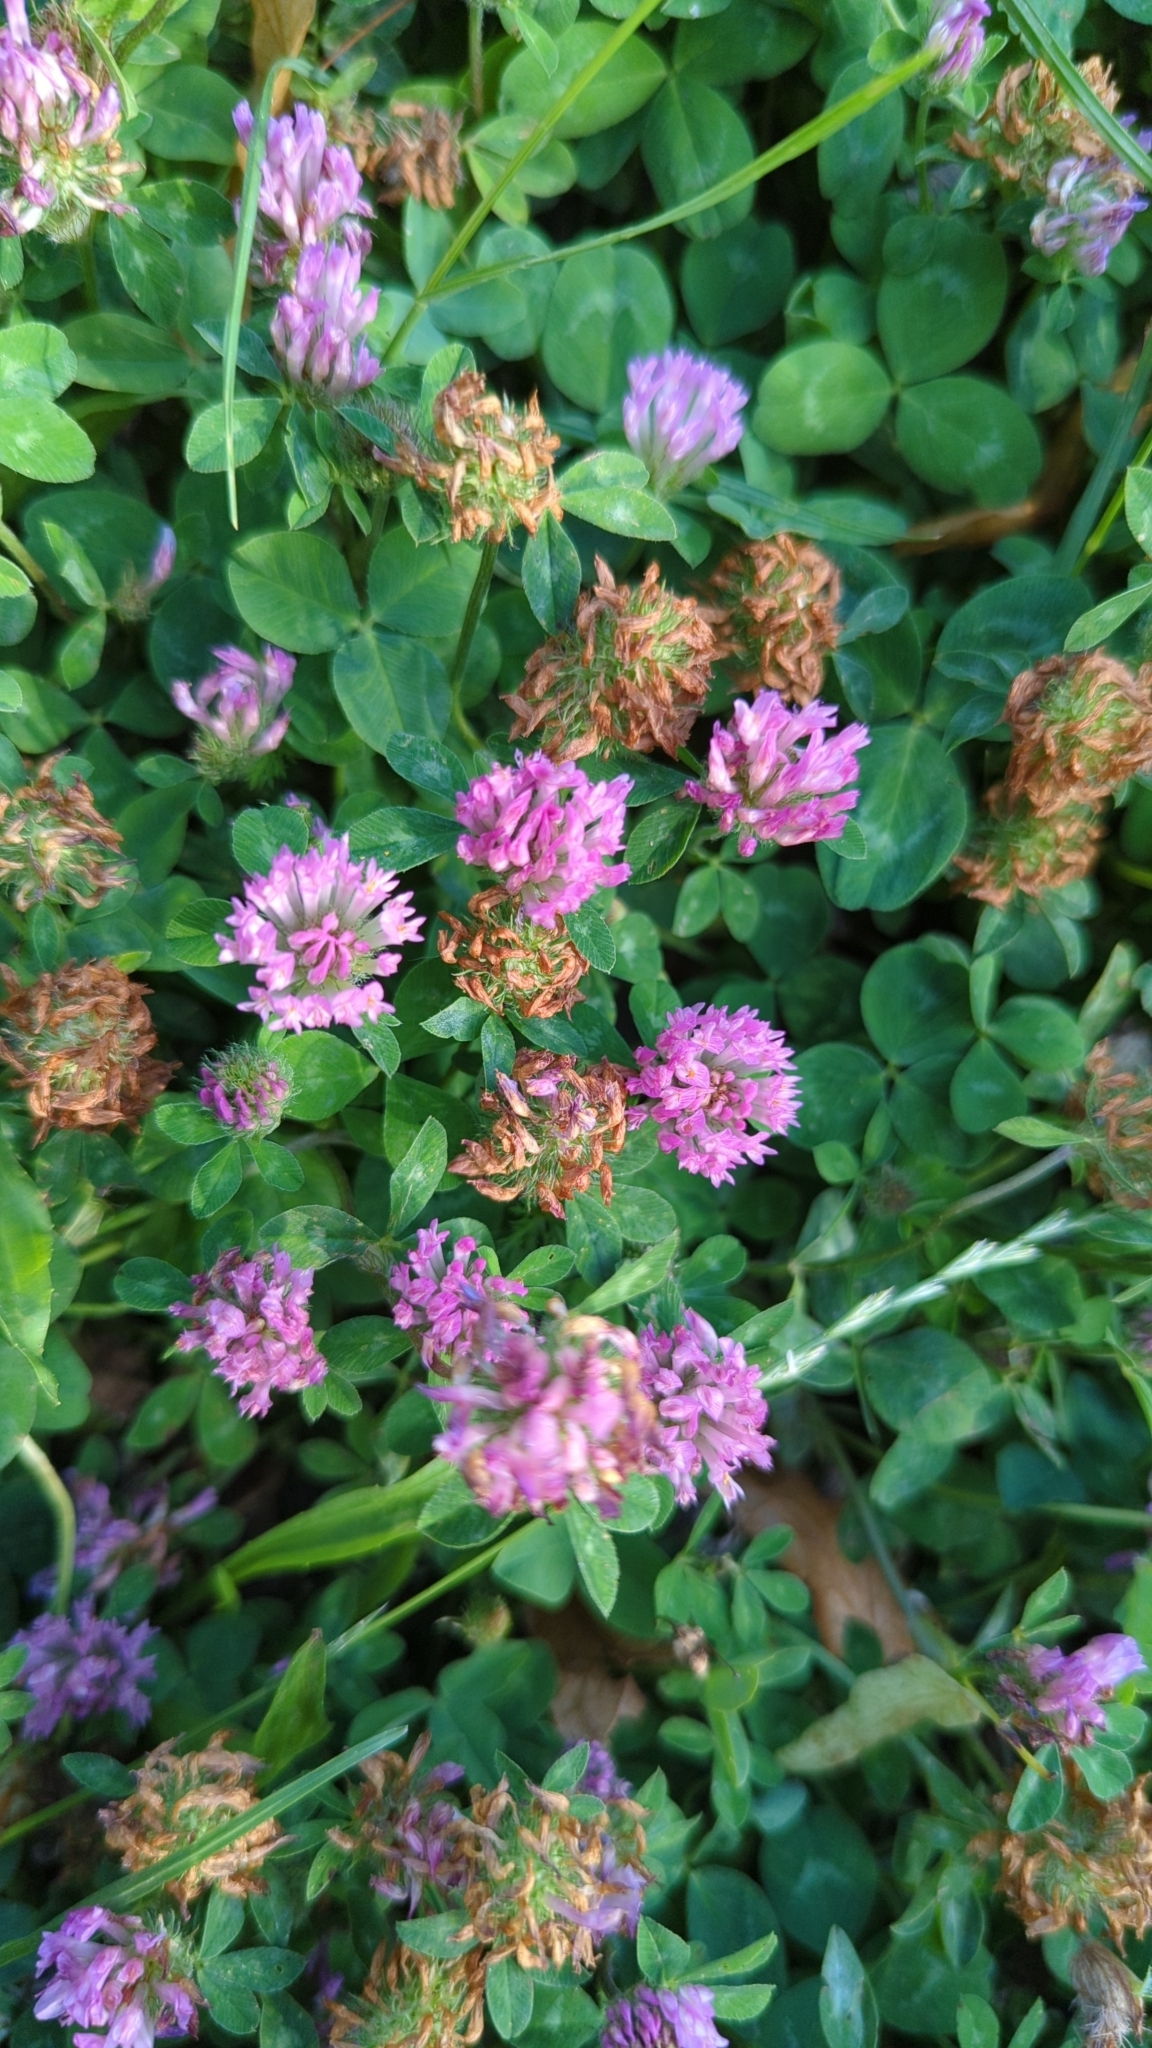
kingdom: Plantae
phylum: Tracheophyta
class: Magnoliopsida
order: Fabales
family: Fabaceae
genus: Trifolium
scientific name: Trifolium pratense
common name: Red clover
